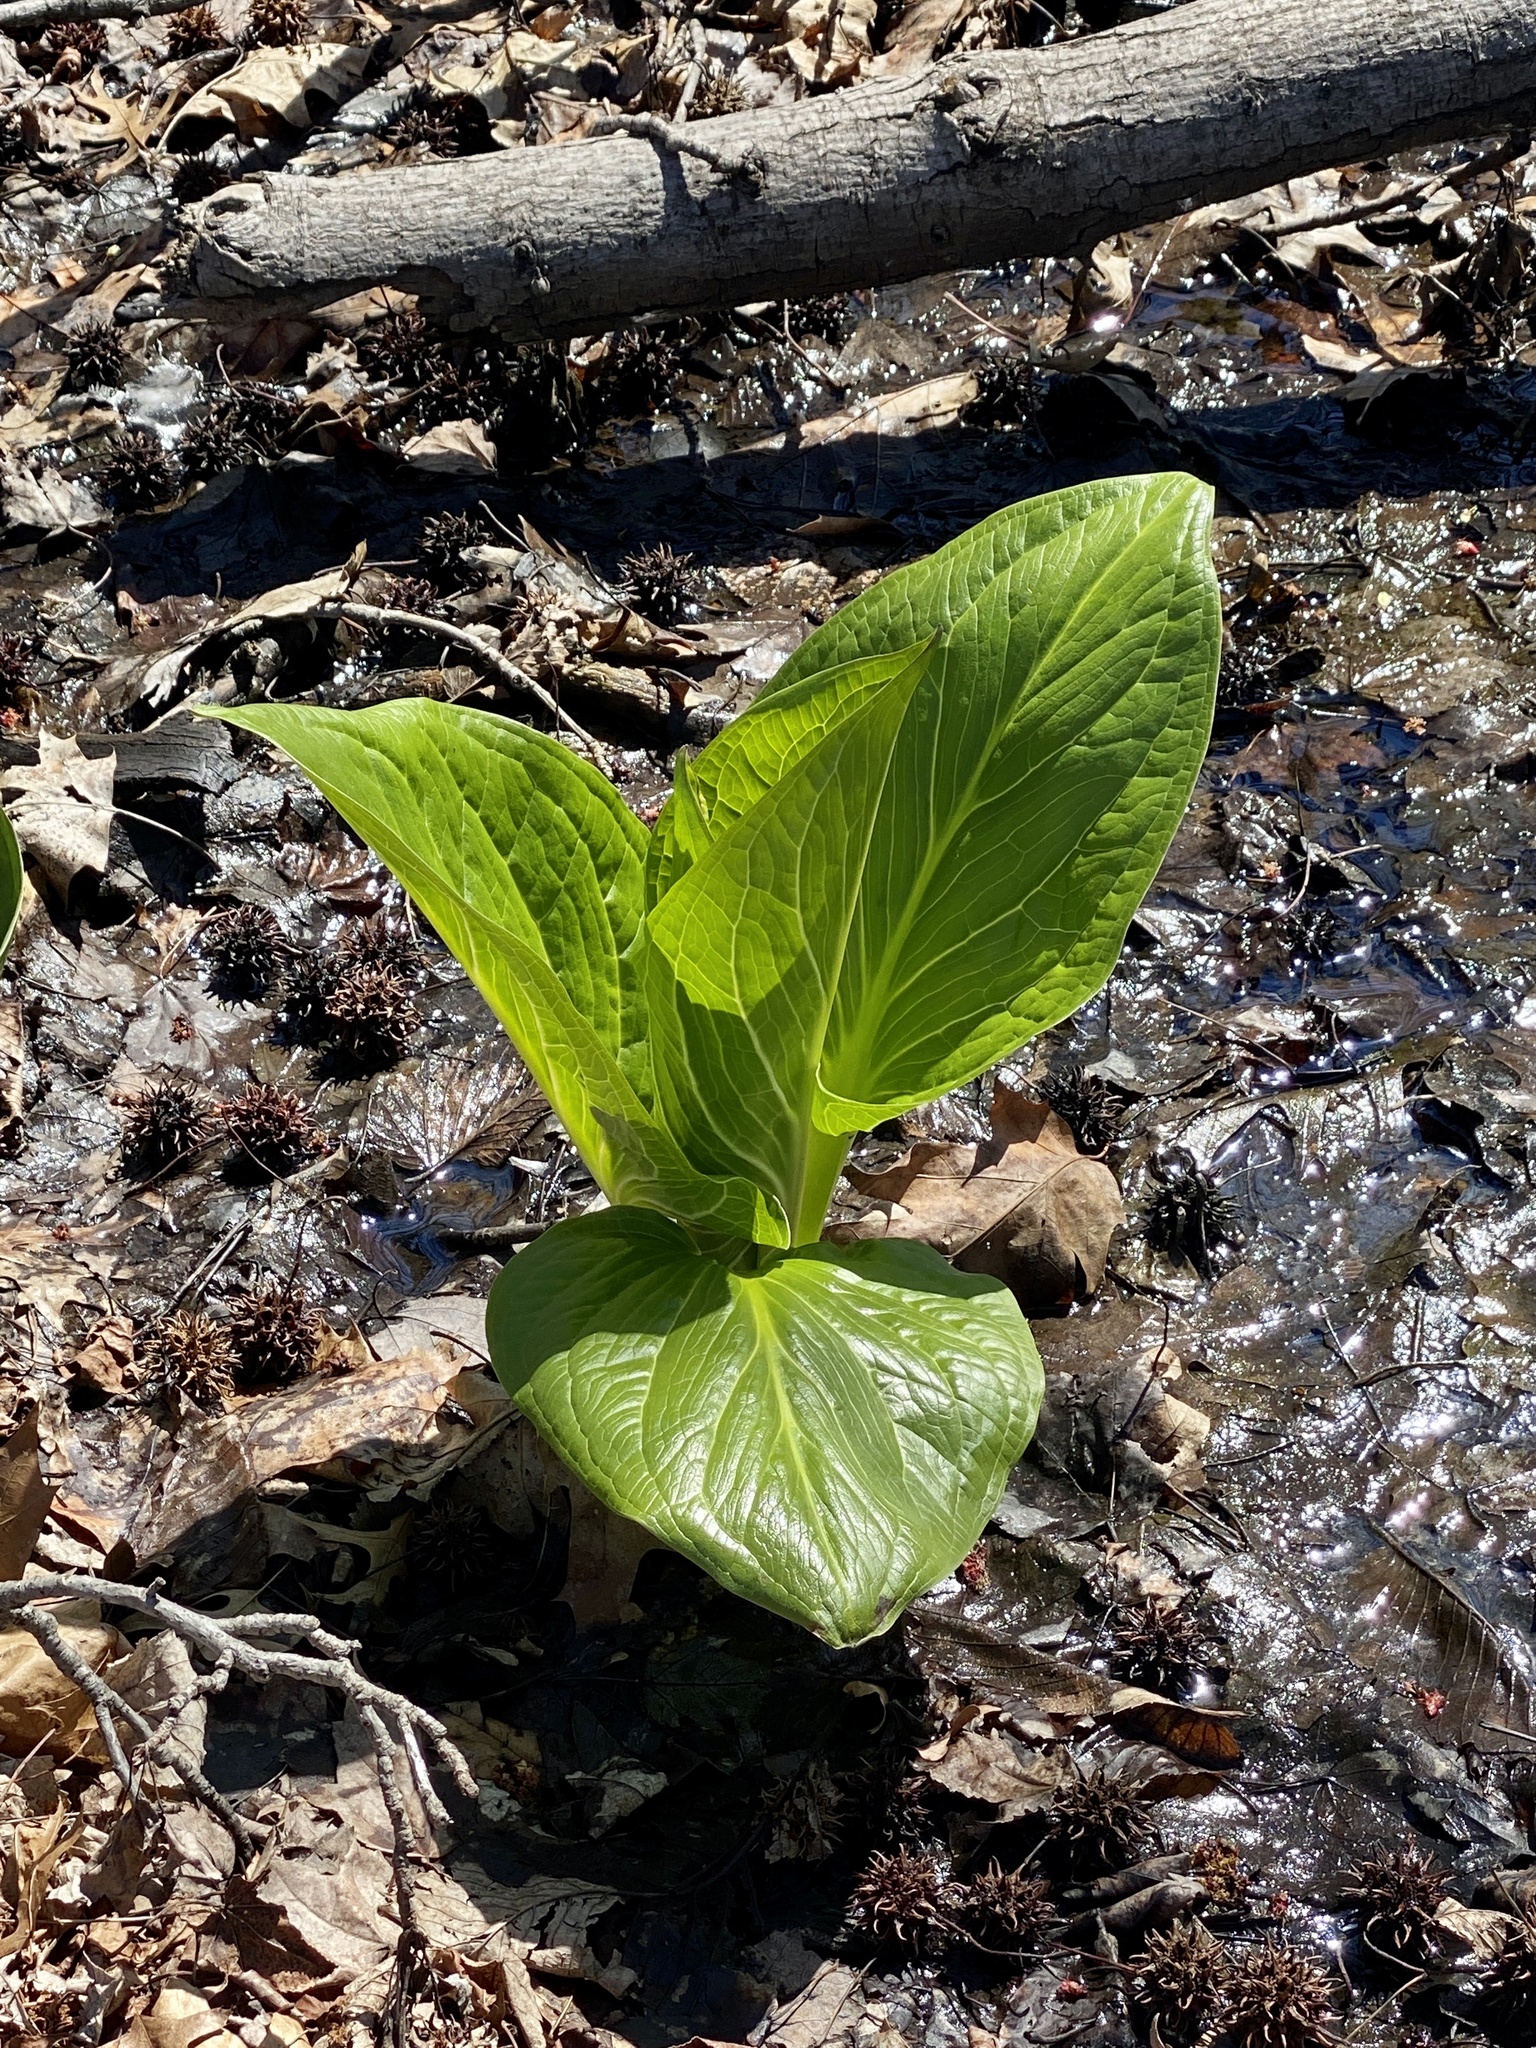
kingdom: Plantae
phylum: Tracheophyta
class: Liliopsida
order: Alismatales
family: Araceae
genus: Symplocarpus
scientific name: Symplocarpus foetidus
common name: Eastern skunk cabbage
